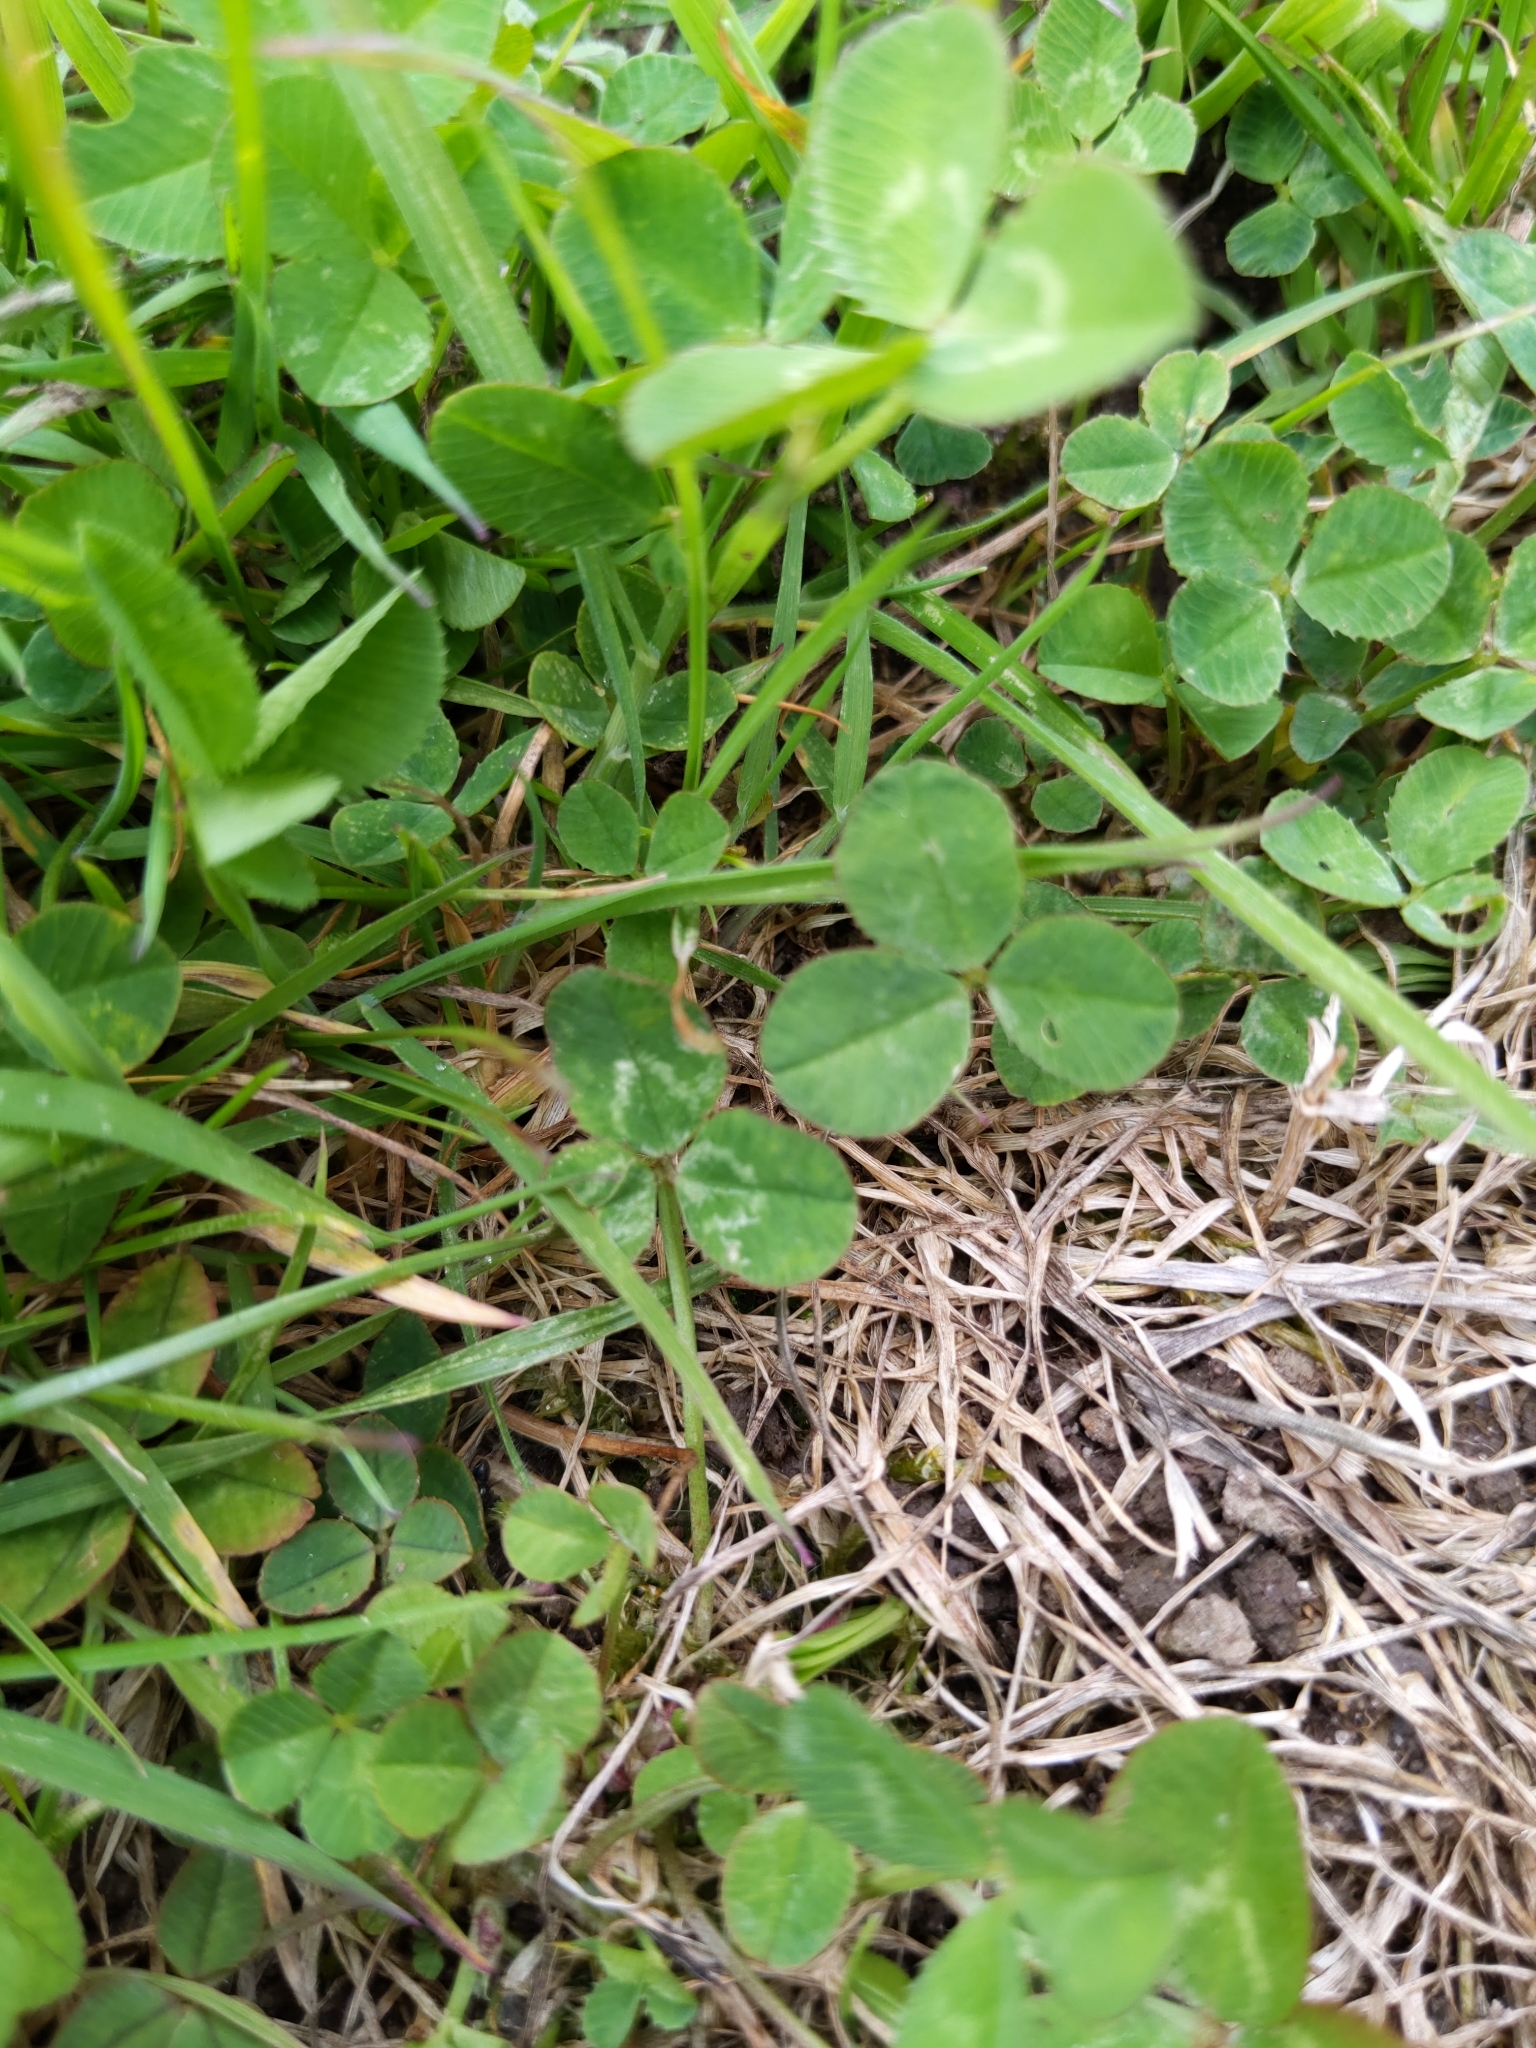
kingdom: Plantae
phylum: Tracheophyta
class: Magnoliopsida
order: Fabales
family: Fabaceae
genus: Trifolium
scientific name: Trifolium repens
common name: White clover
